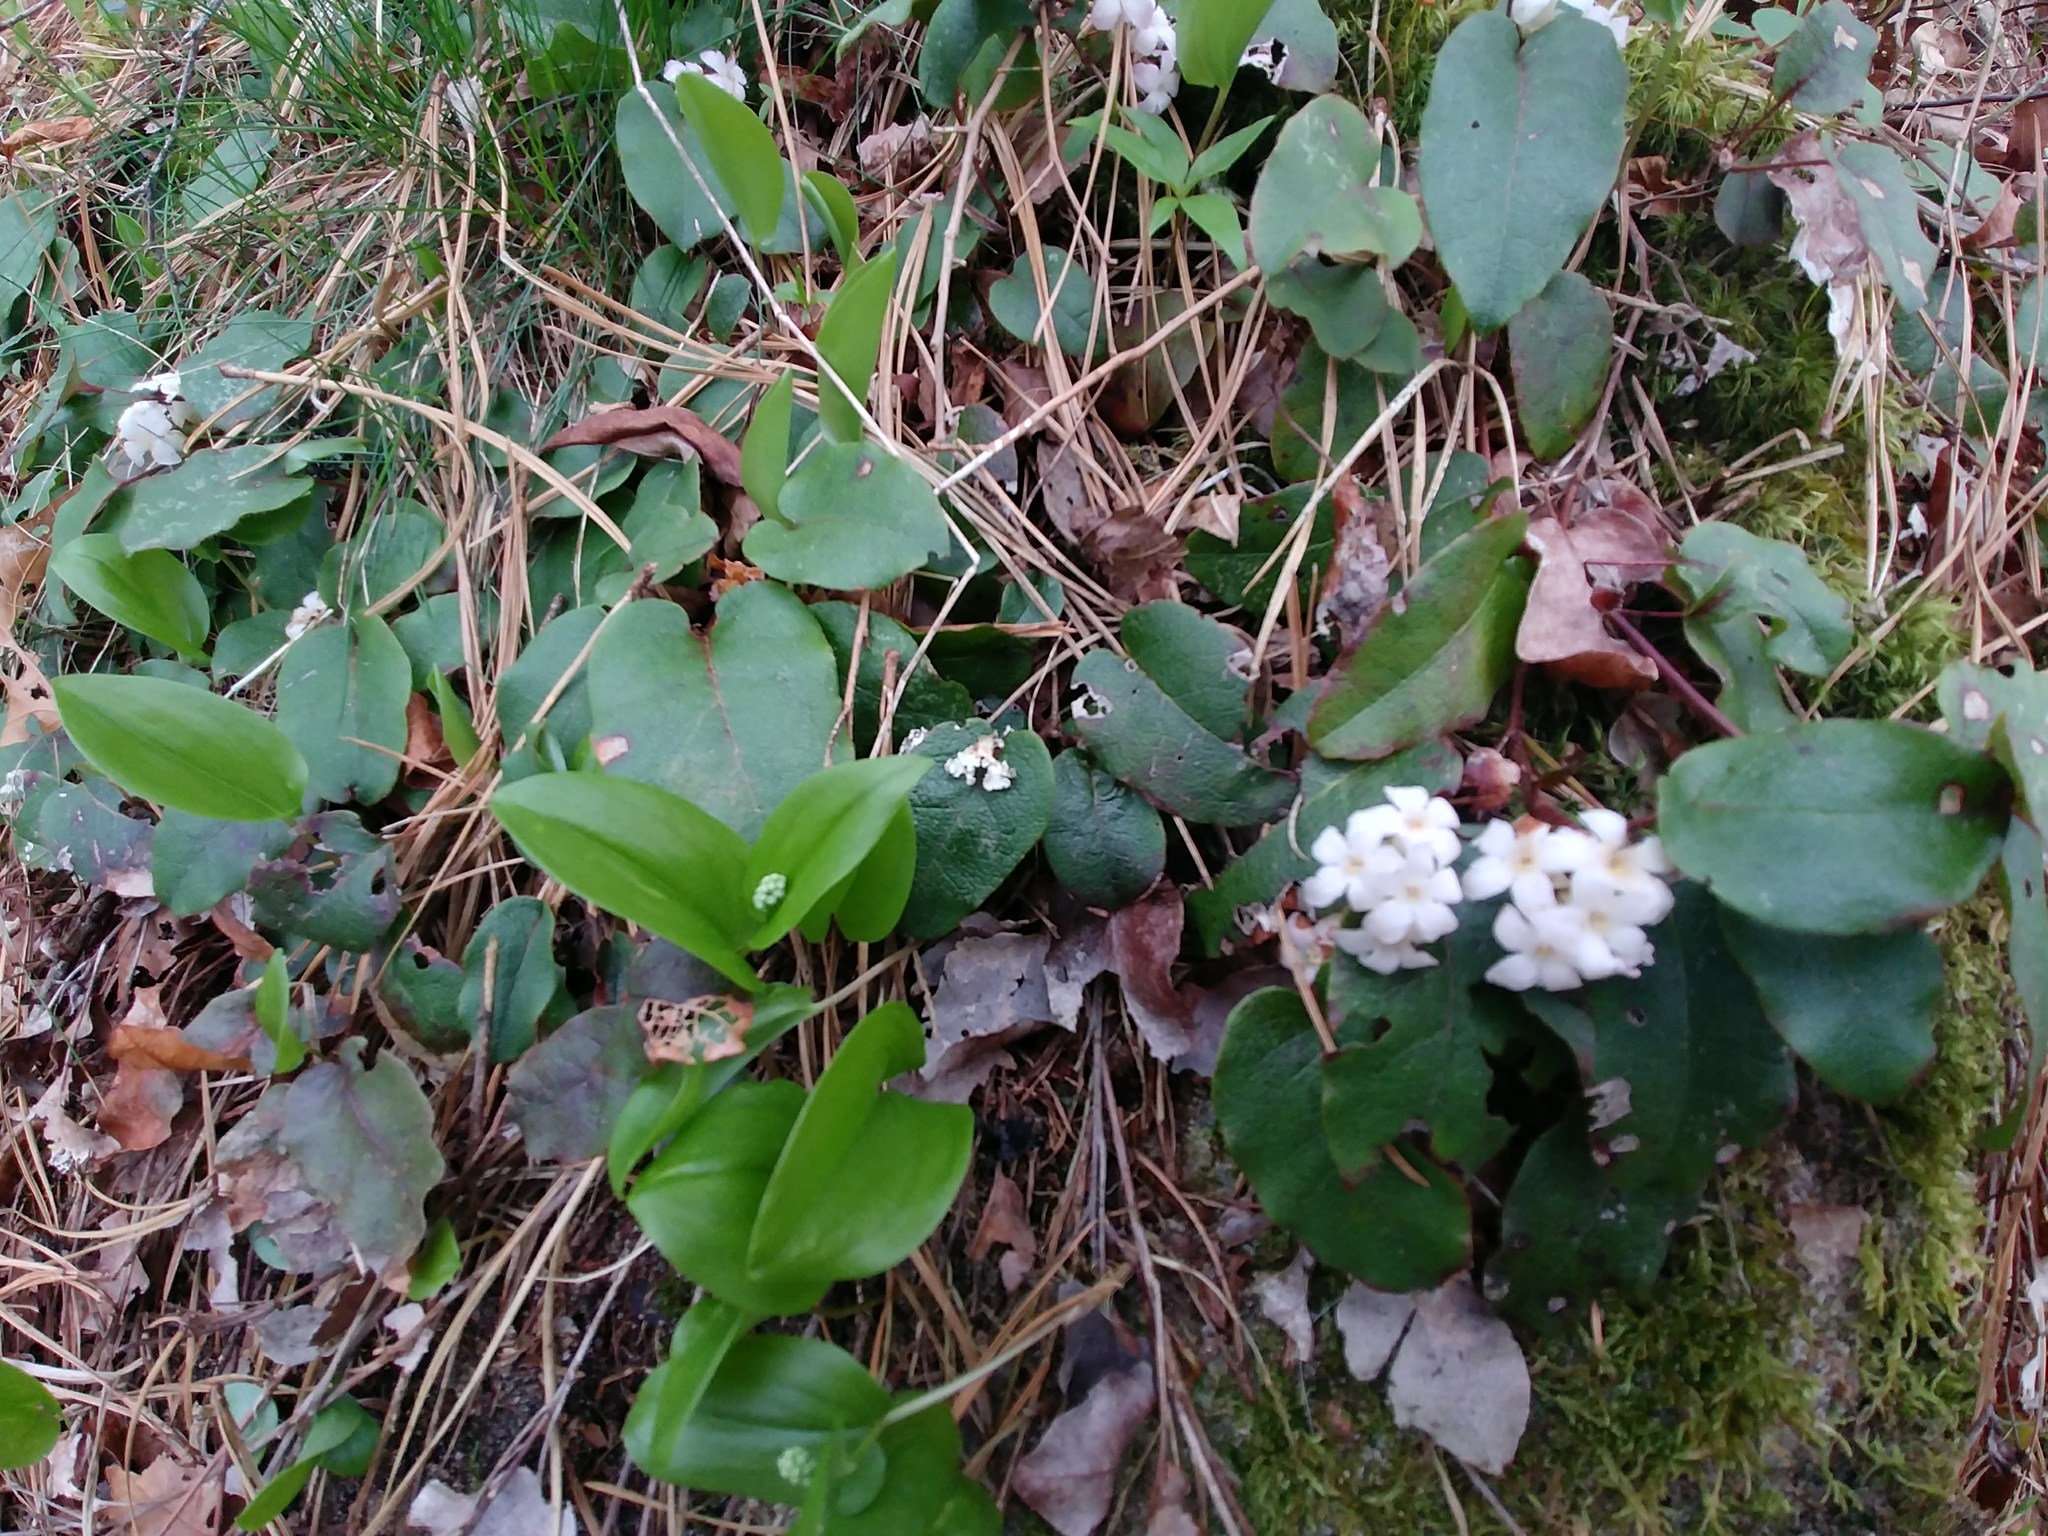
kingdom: Plantae
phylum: Tracheophyta
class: Magnoliopsida
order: Ericales
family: Ericaceae
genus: Epigaea
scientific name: Epigaea repens
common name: Gravelroot
